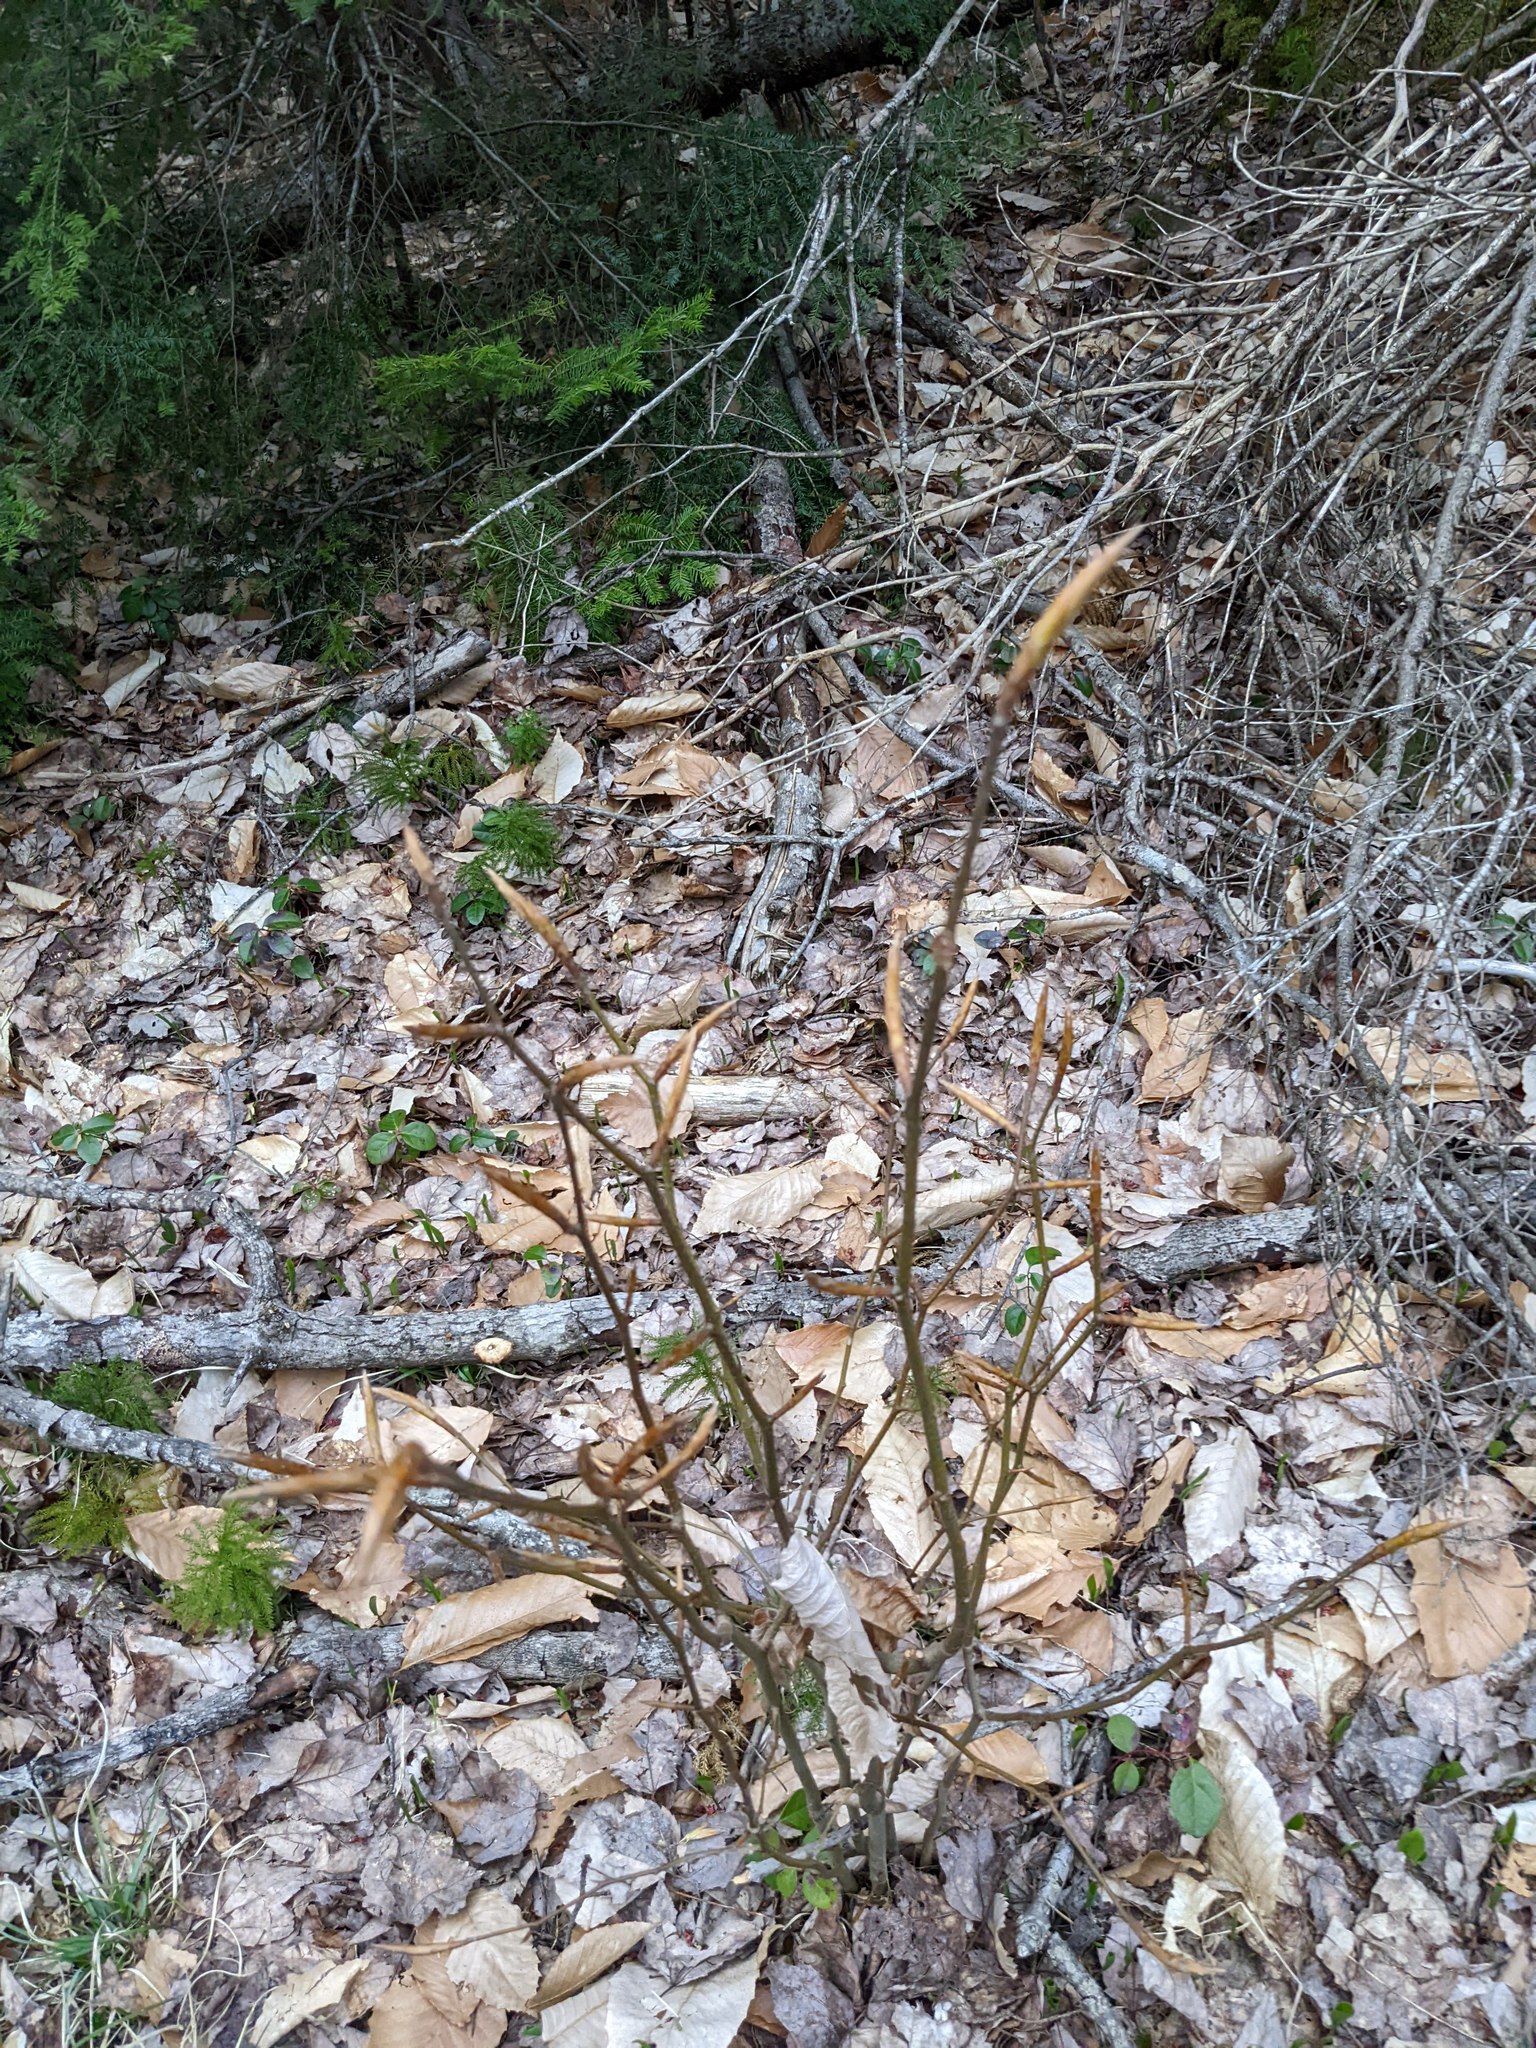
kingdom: Plantae
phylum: Tracheophyta
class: Magnoliopsida
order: Fagales
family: Fagaceae
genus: Fagus
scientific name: Fagus grandifolia
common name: American beech
